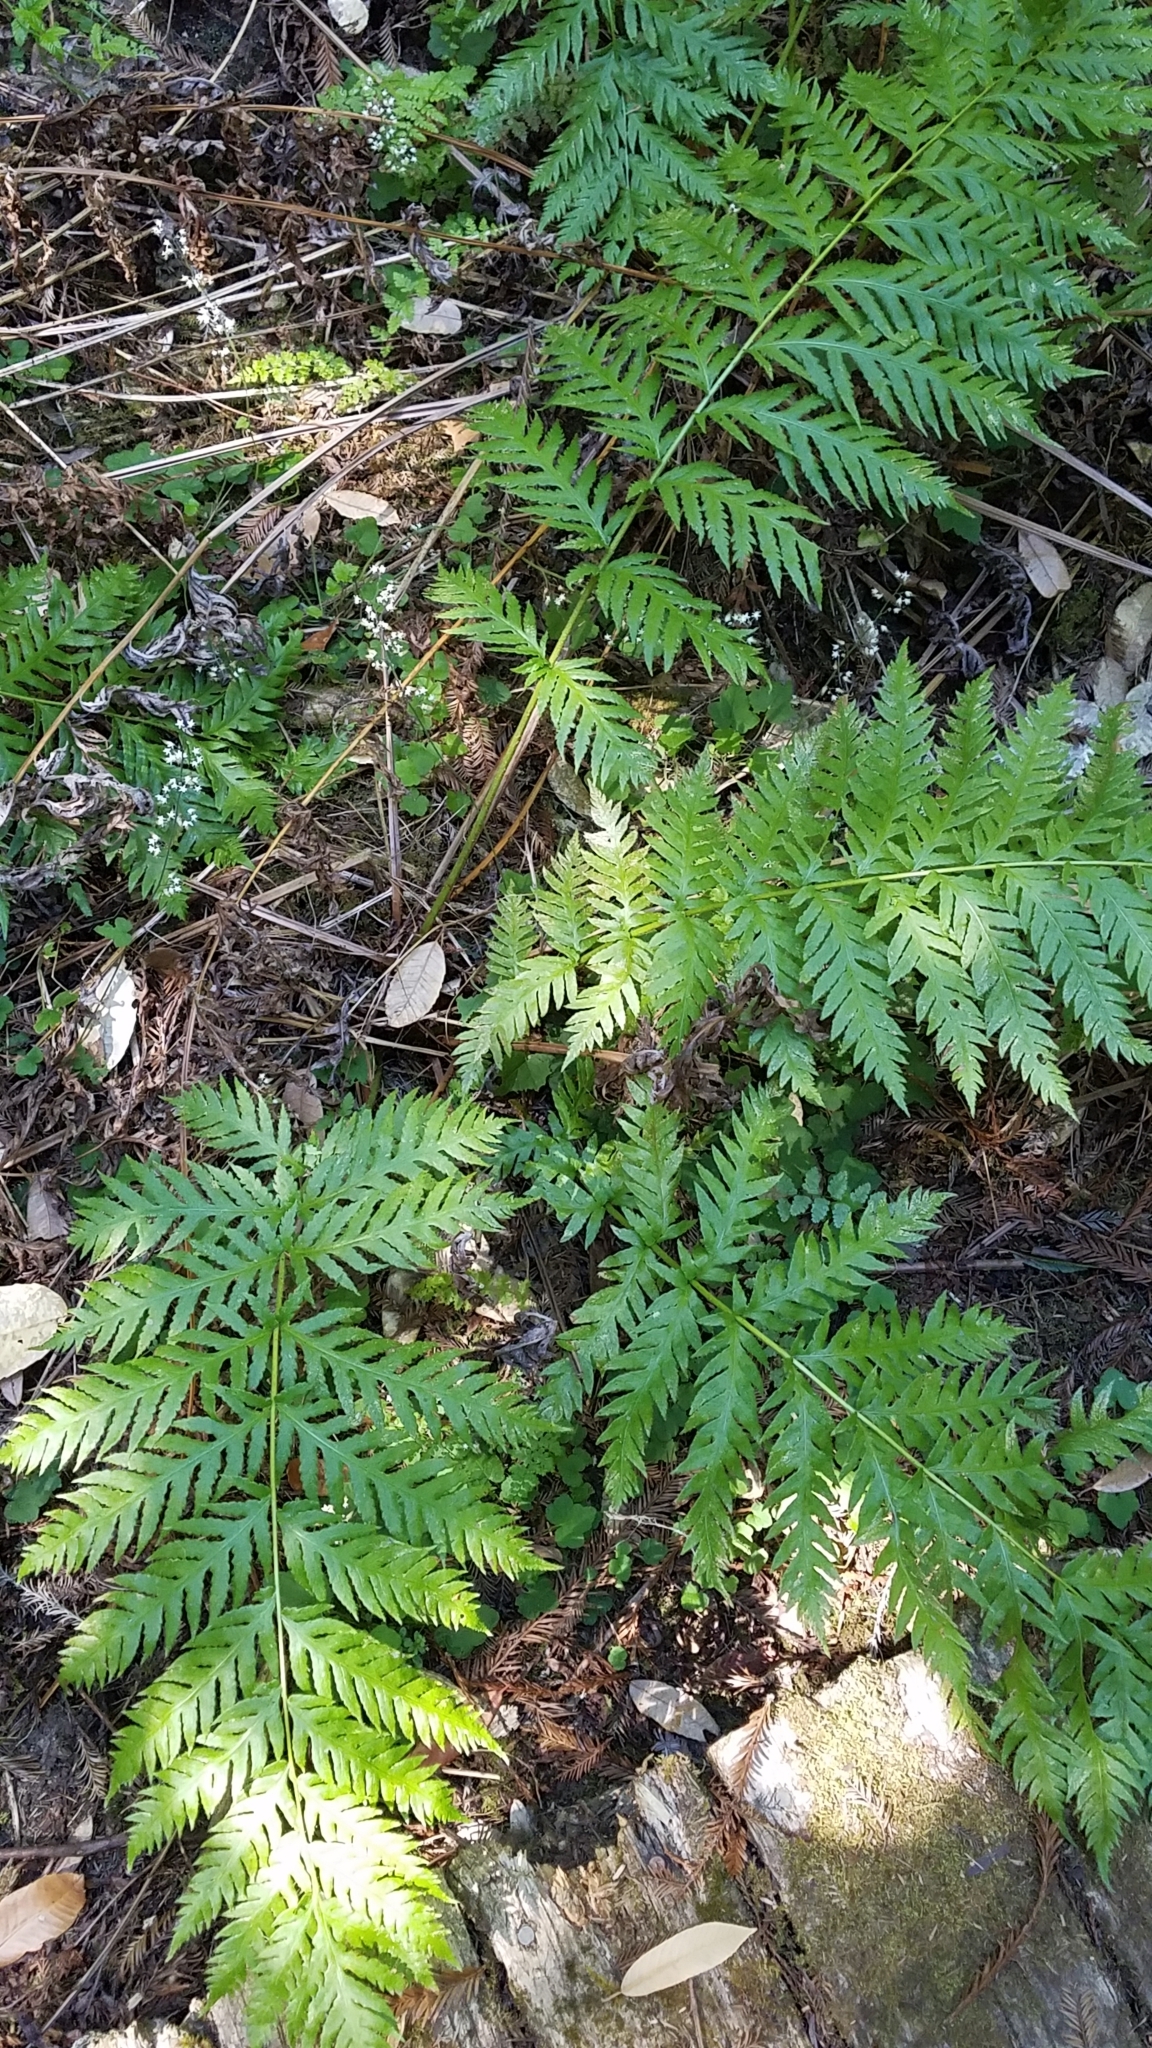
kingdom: Plantae
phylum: Tracheophyta
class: Polypodiopsida
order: Polypodiales
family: Blechnaceae
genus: Woodwardia
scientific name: Woodwardia fimbriata
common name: Giant chain fern
